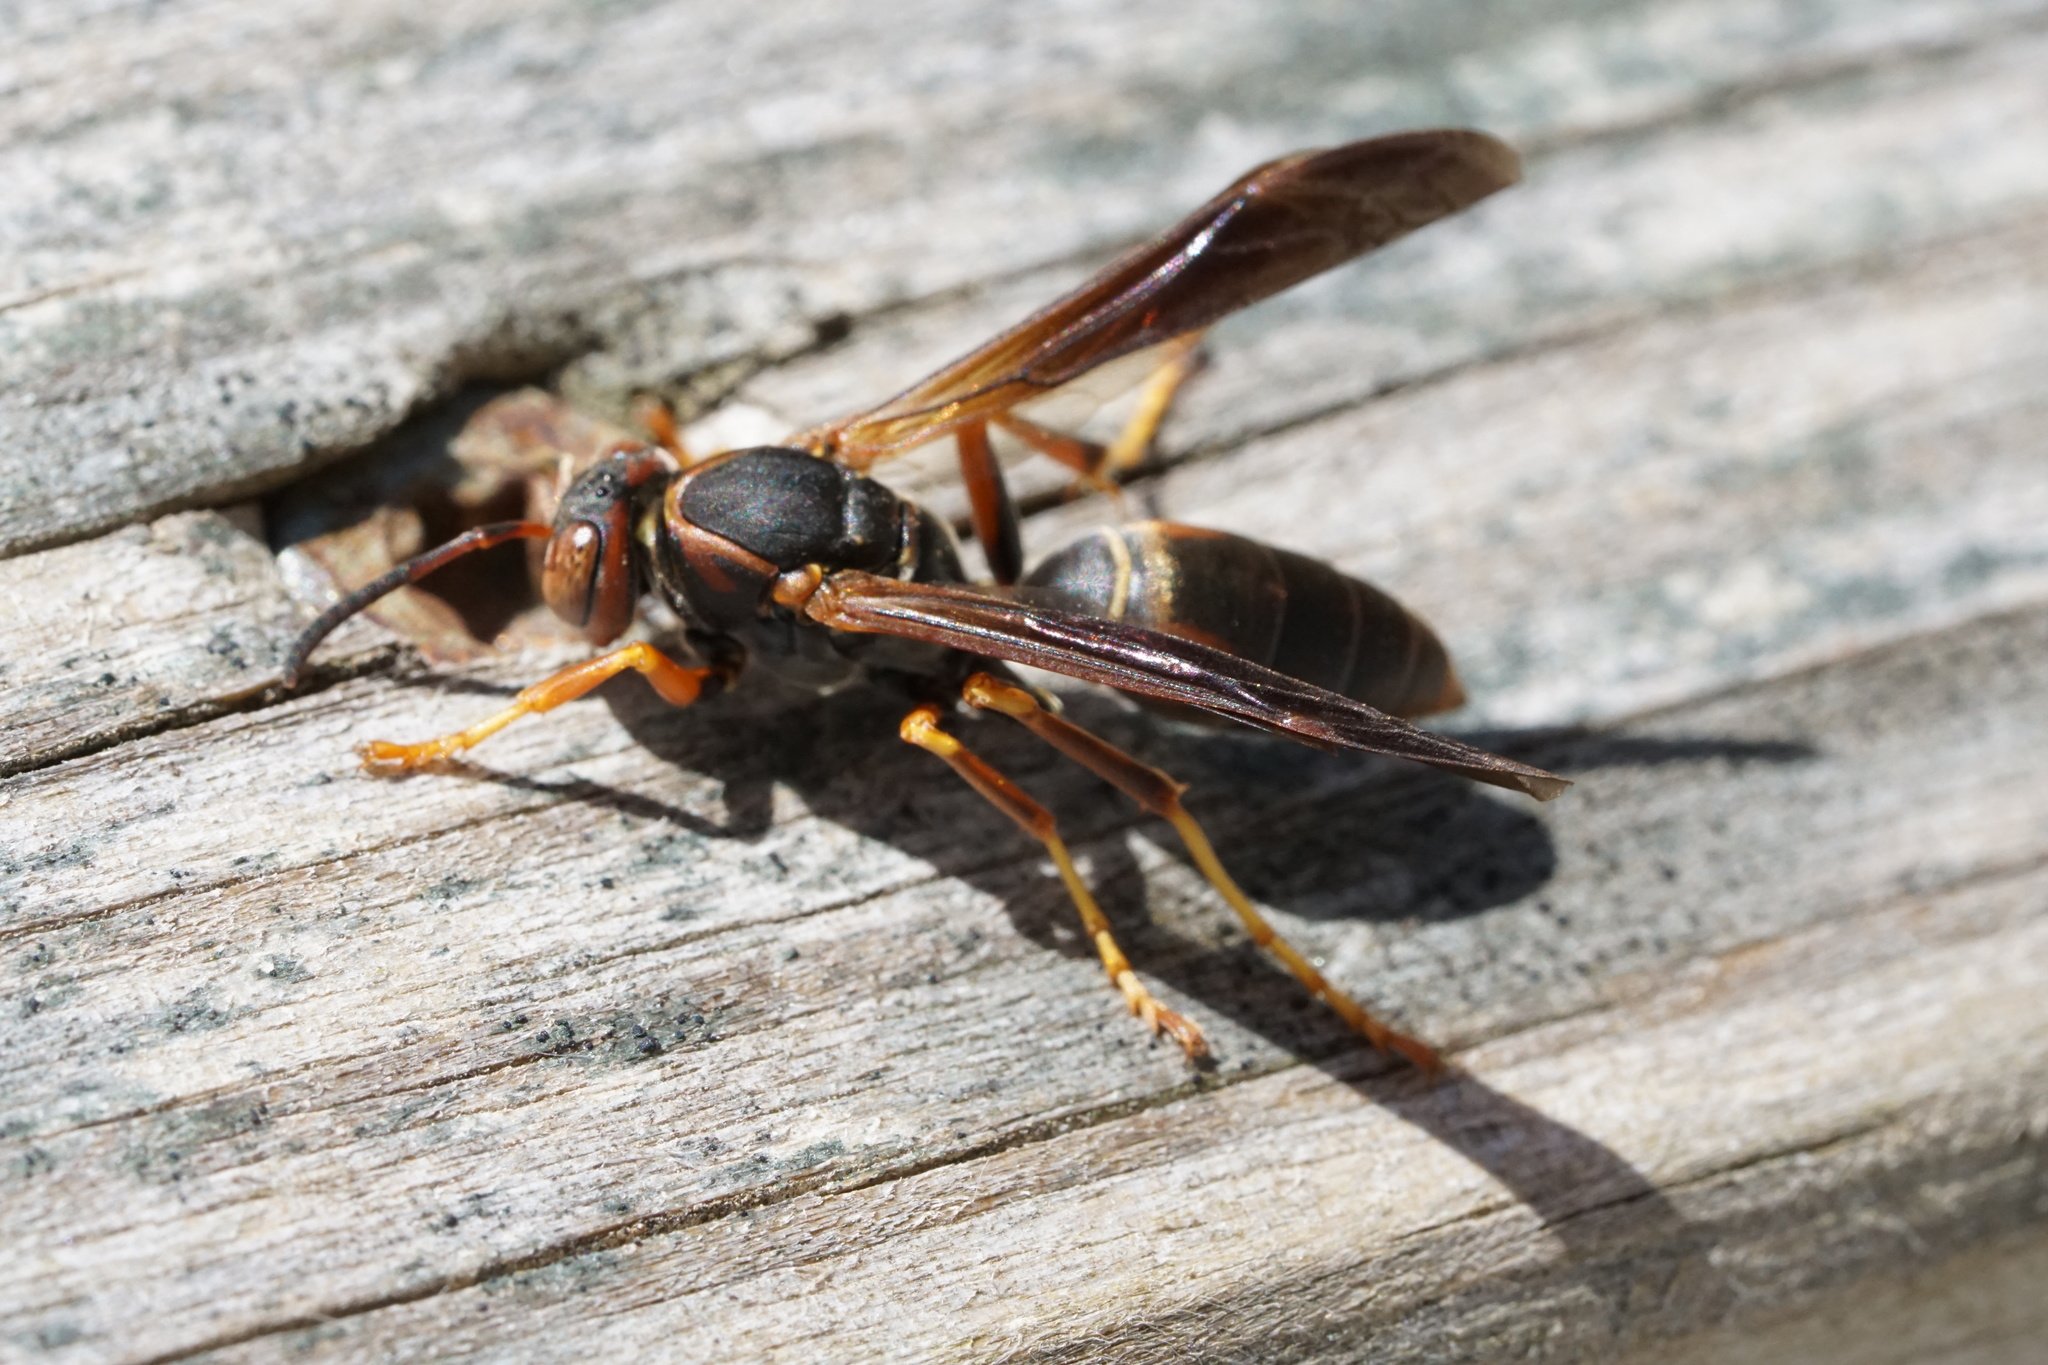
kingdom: Animalia
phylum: Arthropoda
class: Insecta
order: Hymenoptera
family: Eumenidae
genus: Polistes
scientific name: Polistes fuscatus
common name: Dark paper wasp
